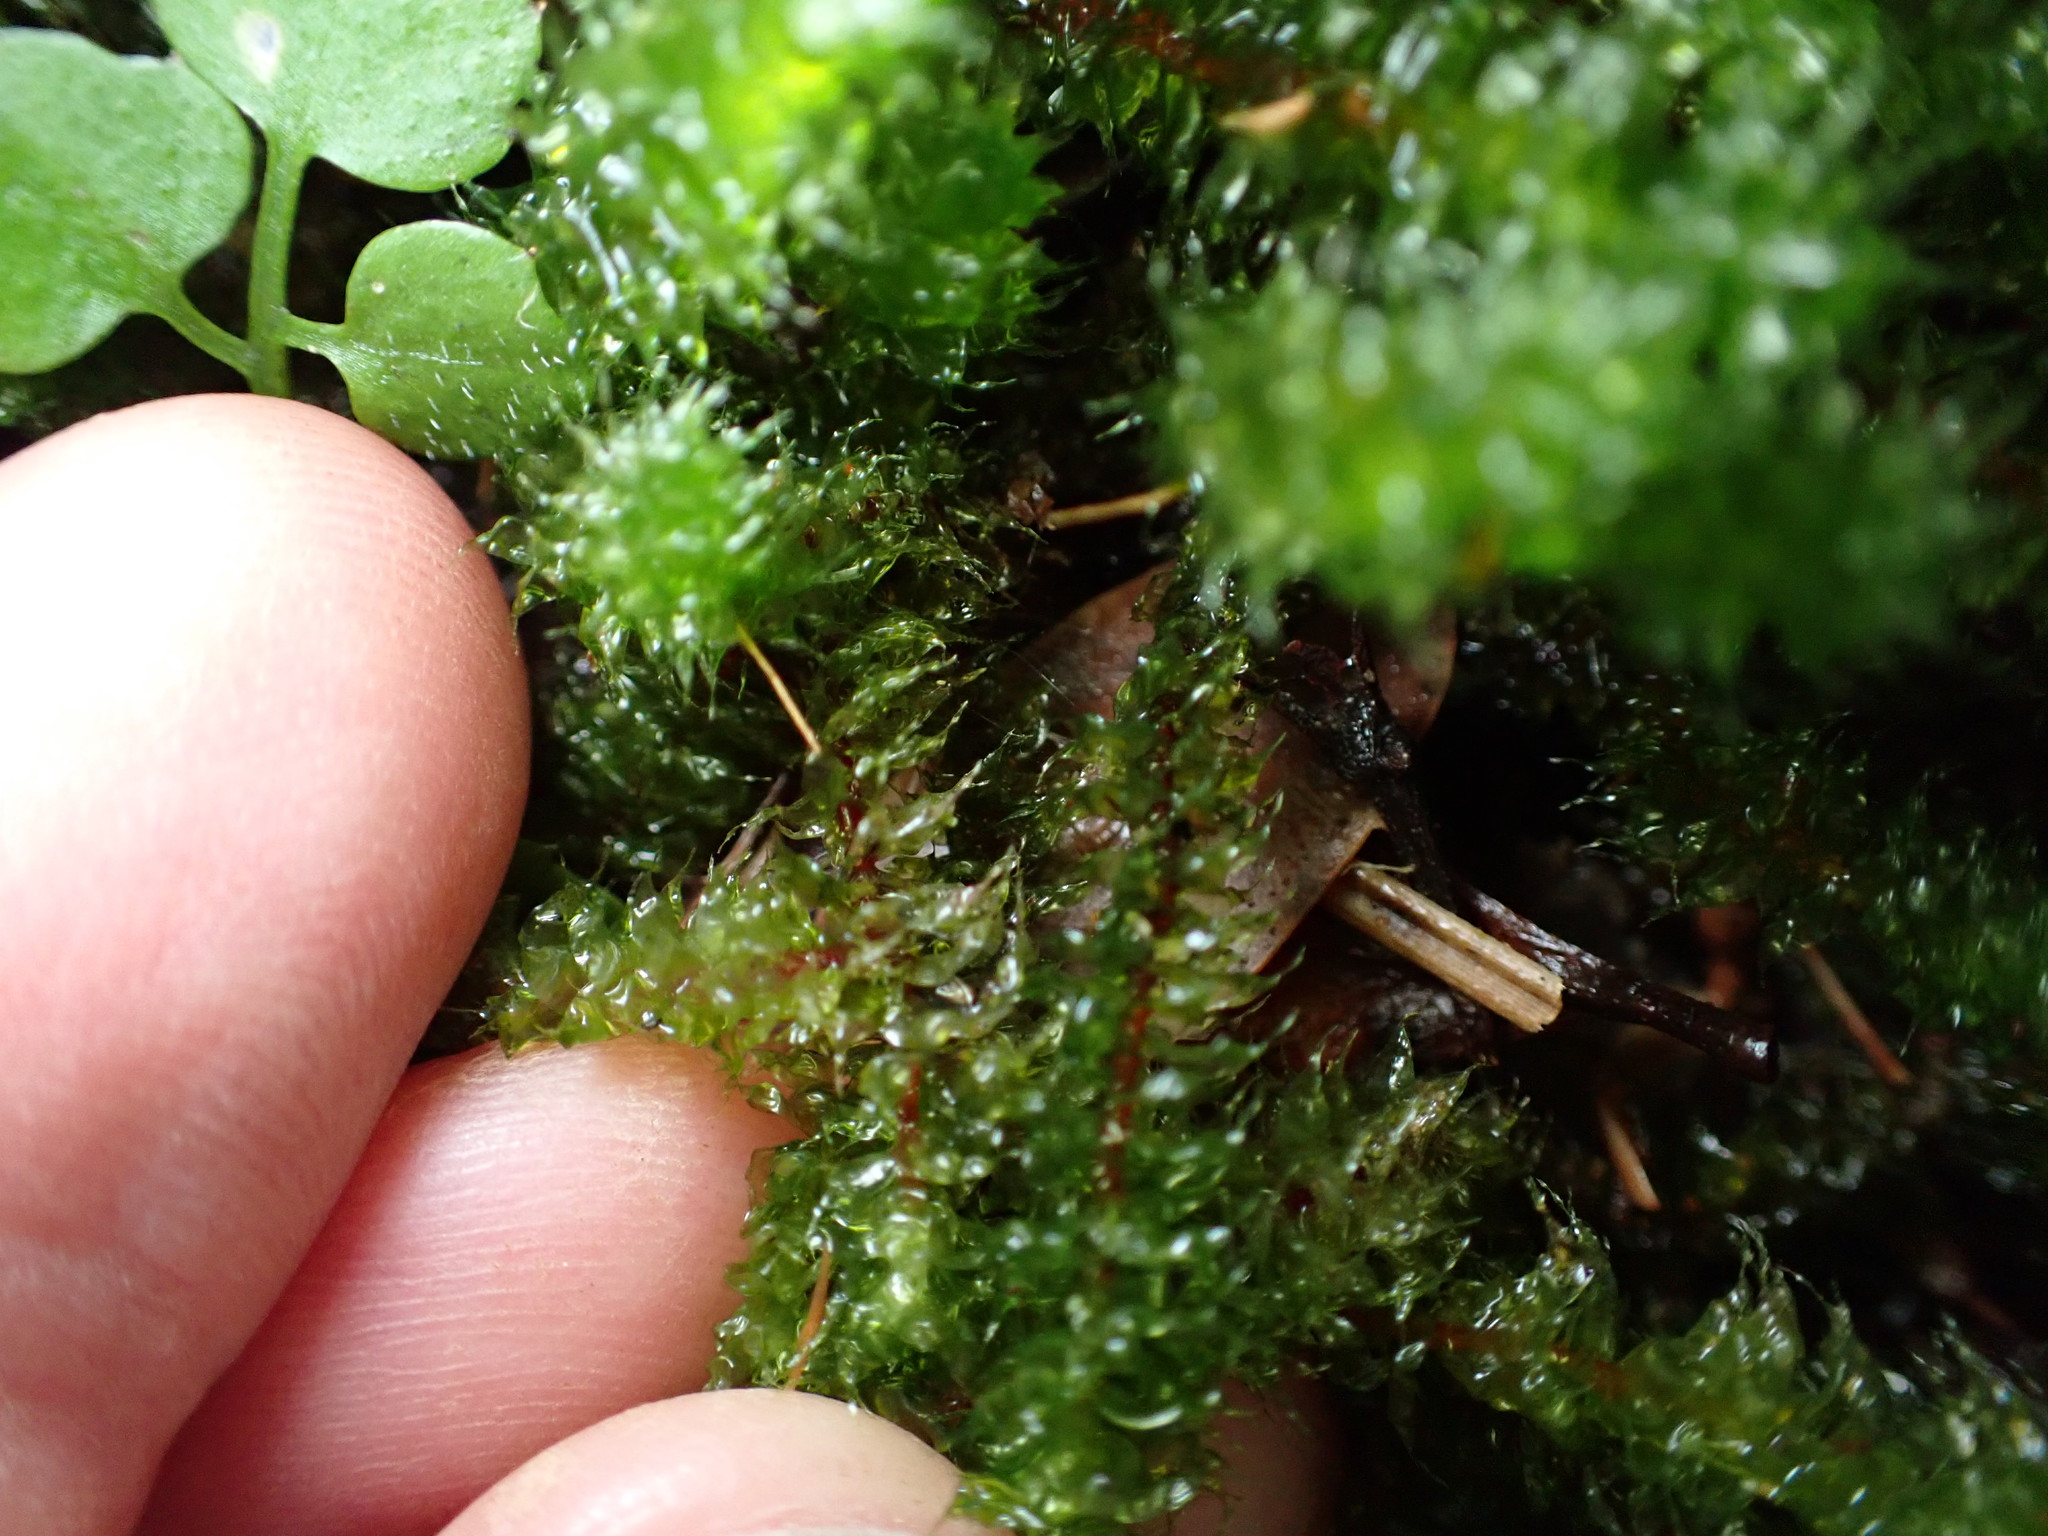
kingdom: Plantae
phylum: Bryophyta
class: Bryopsida
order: Ptychomniales
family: Ptychomniaceae
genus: Ptychomnion
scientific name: Ptychomnion aciculare
